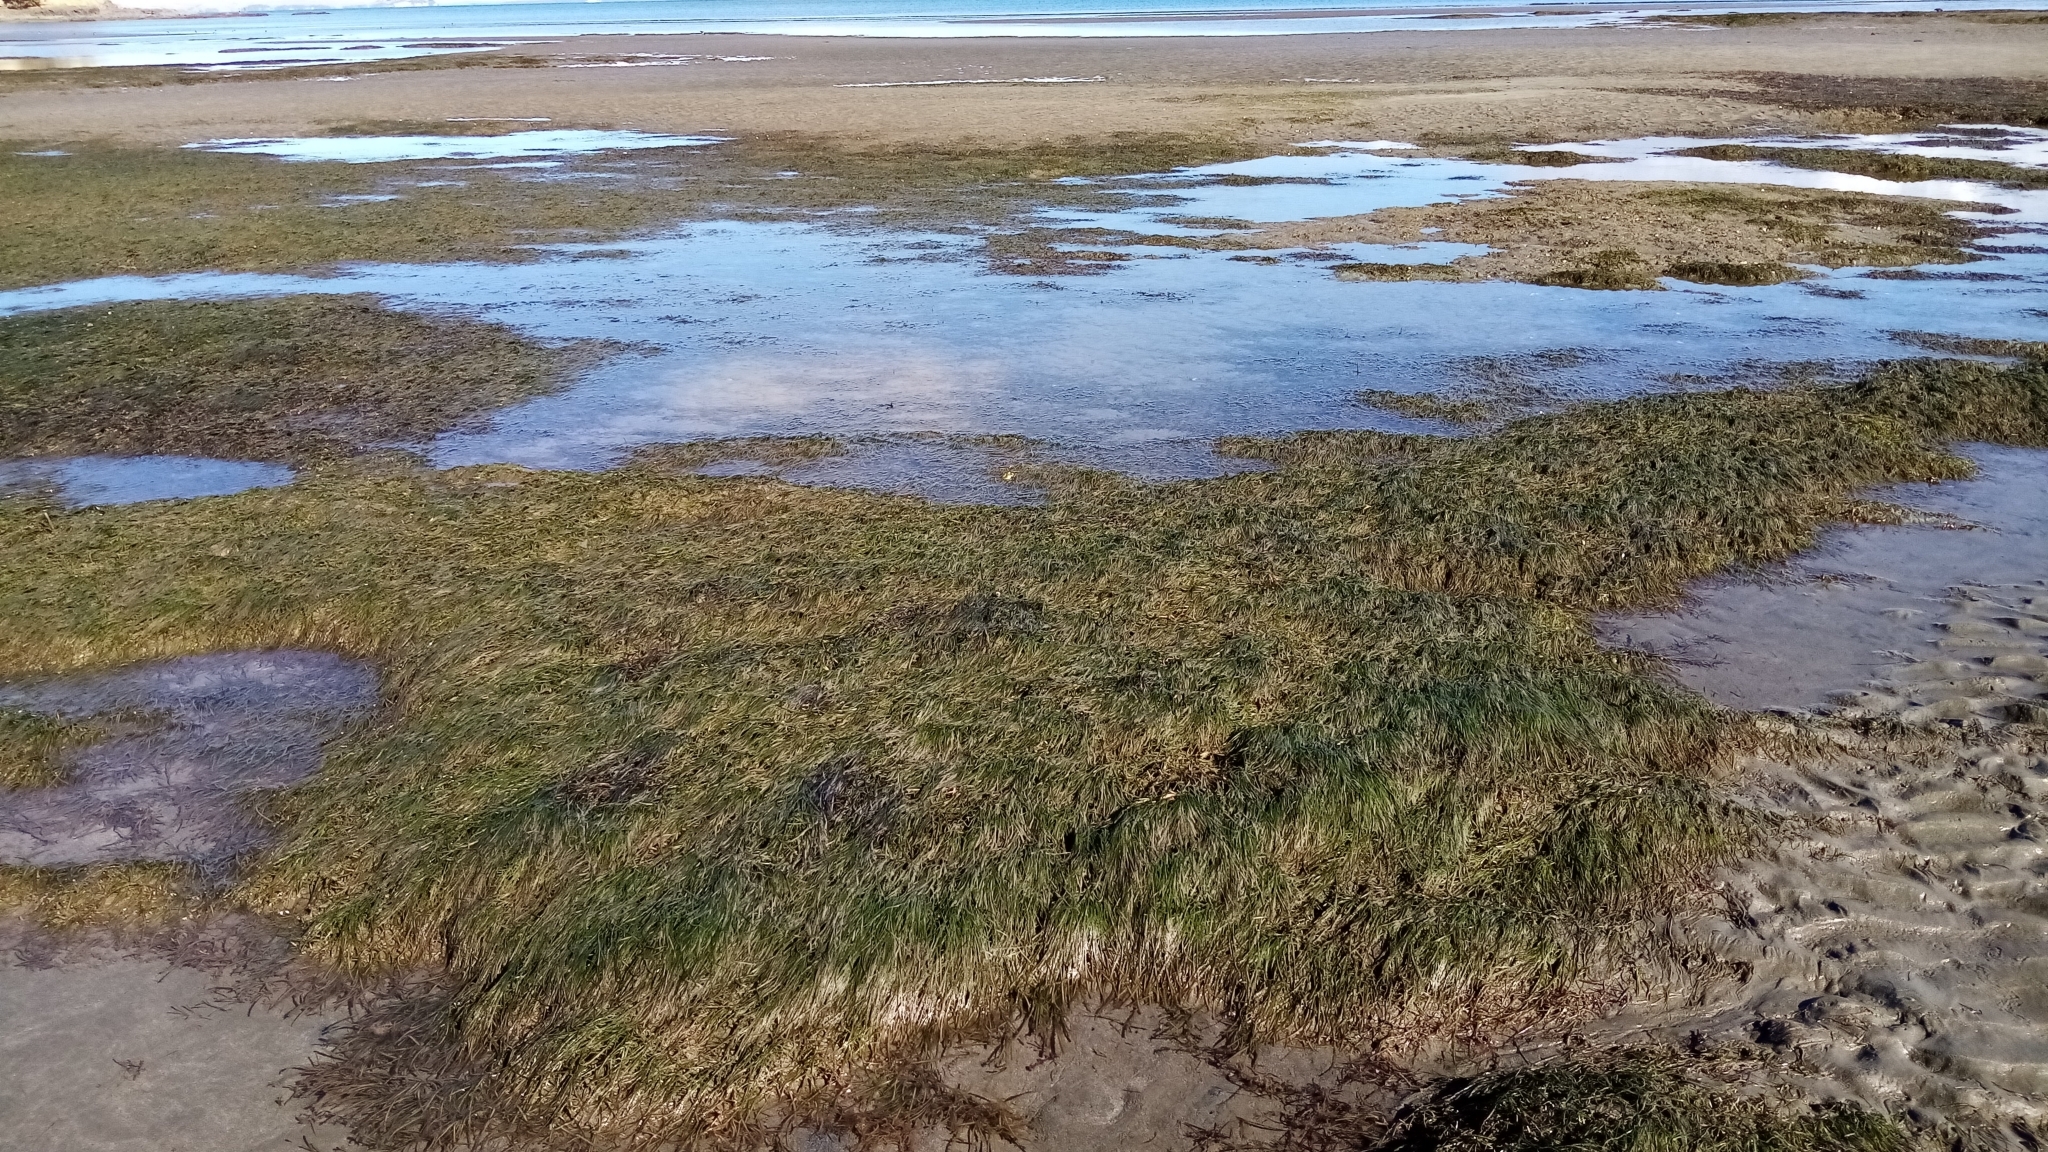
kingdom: Plantae
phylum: Tracheophyta
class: Liliopsida
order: Alismatales
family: Zosteraceae
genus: Zostera
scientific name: Zostera muelleri
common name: Species code: zc
